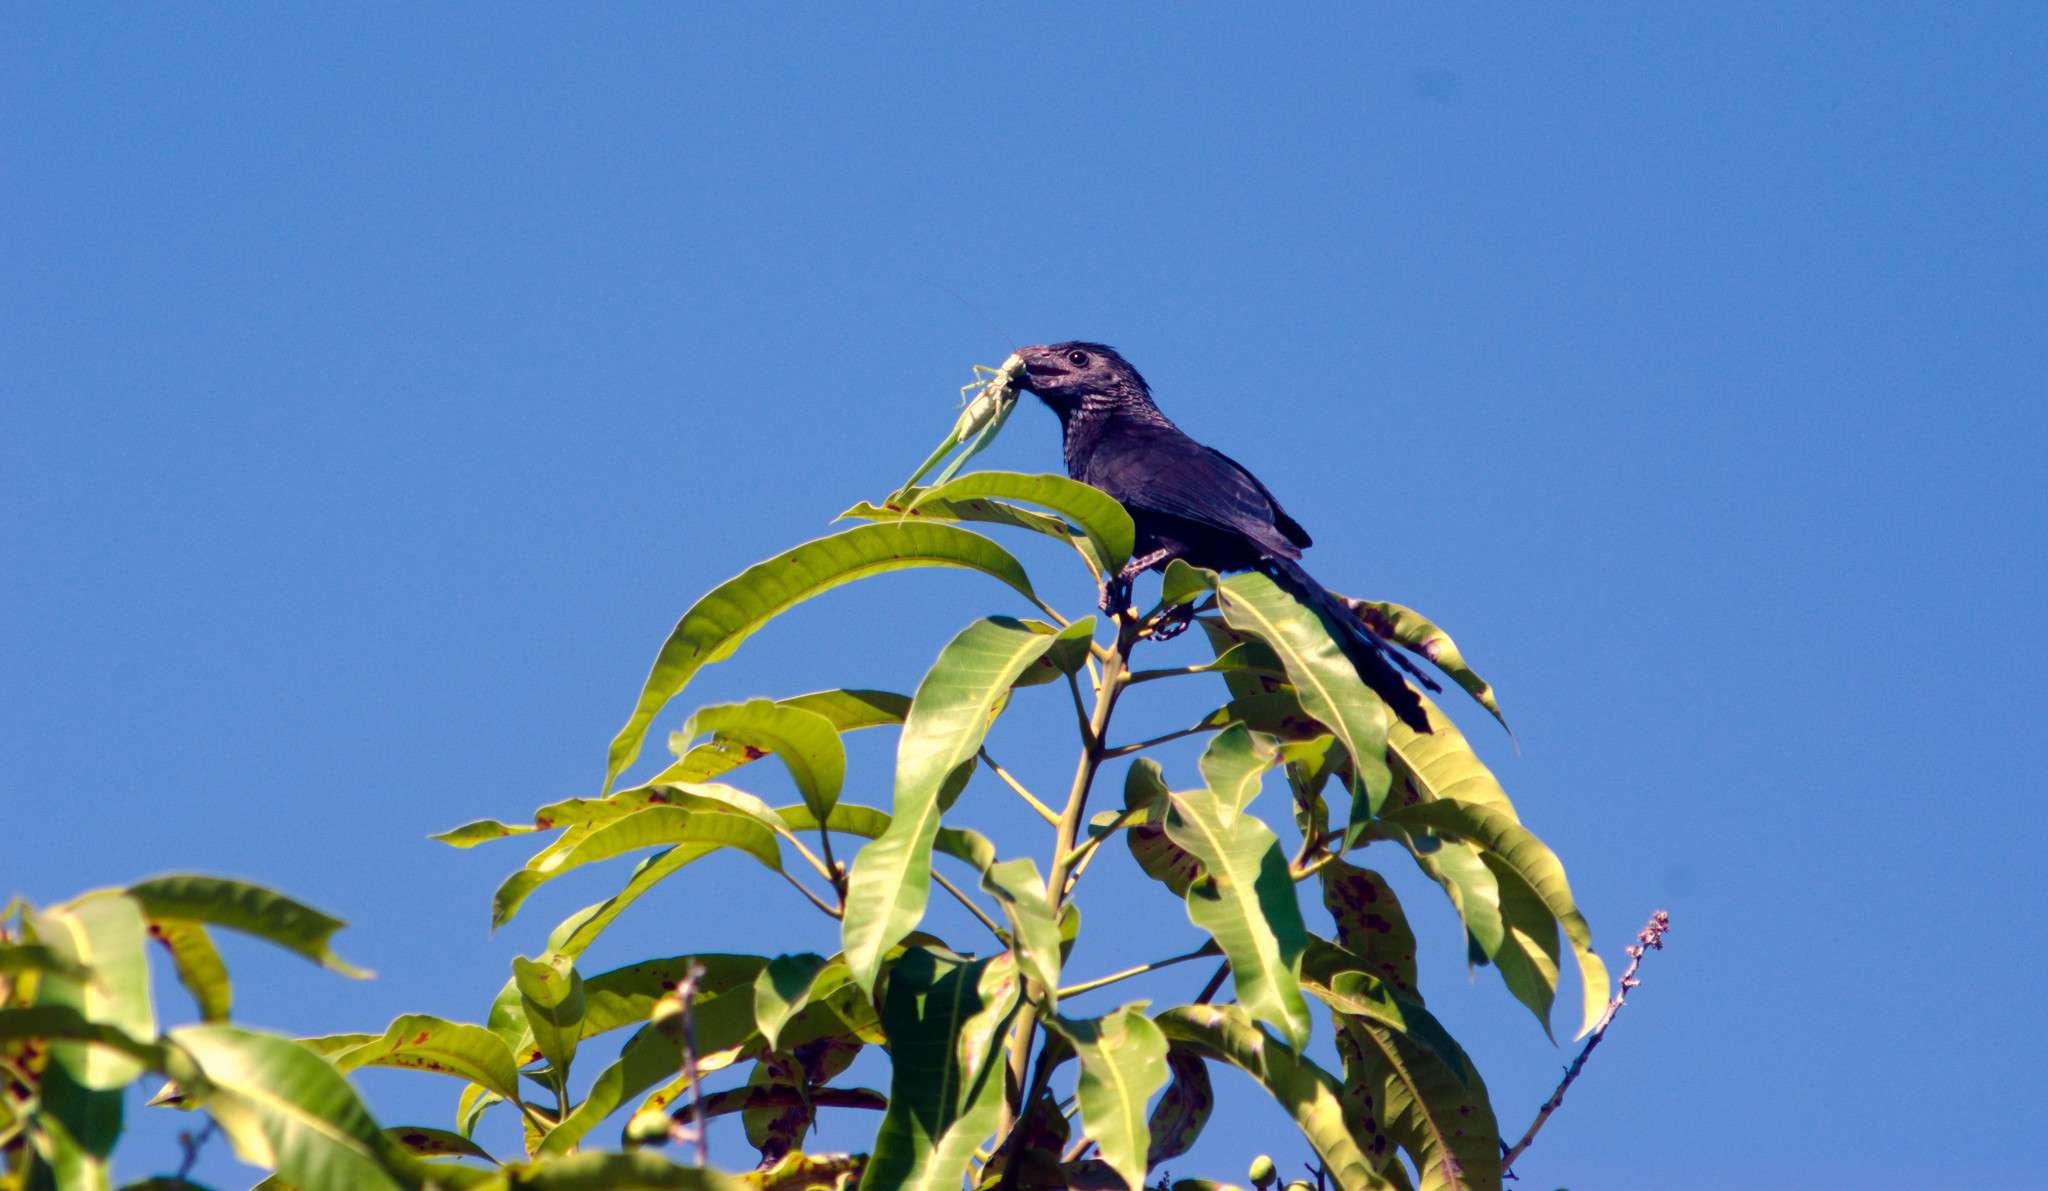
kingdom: Animalia
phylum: Chordata
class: Aves
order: Cuculiformes
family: Cuculidae
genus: Crotophaga
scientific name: Crotophaga sulcirostris
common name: Groove-billed ani
